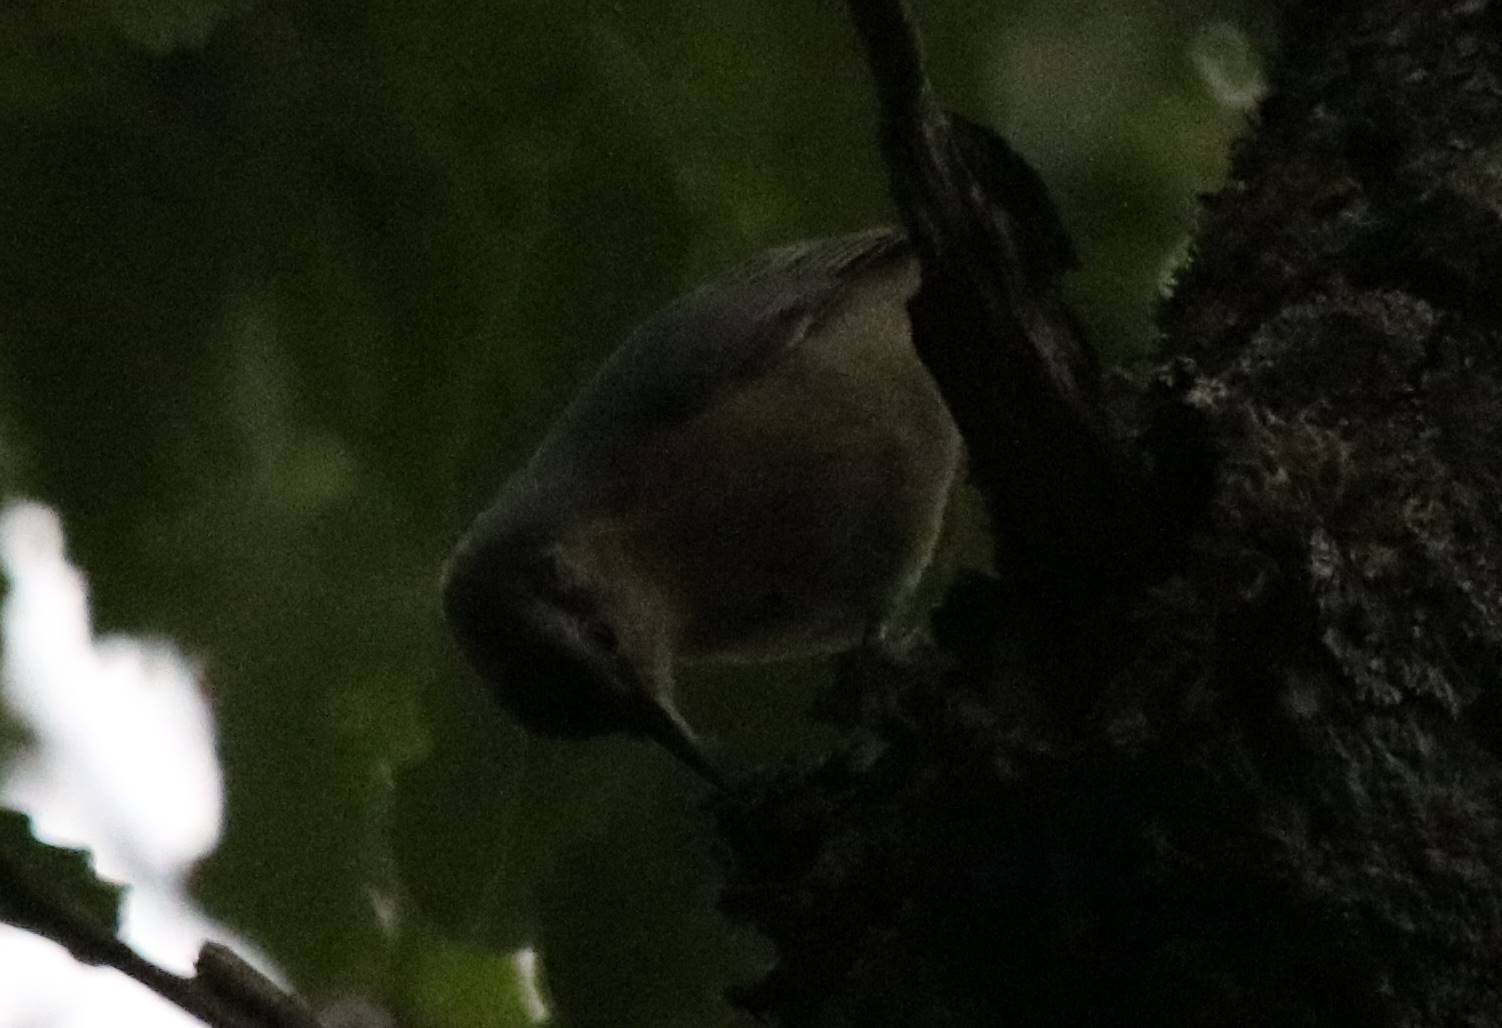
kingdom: Animalia
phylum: Chordata
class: Aves
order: Passeriformes
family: Sittidae
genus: Sitta
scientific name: Sitta ledanti
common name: Algerian nuthatch
